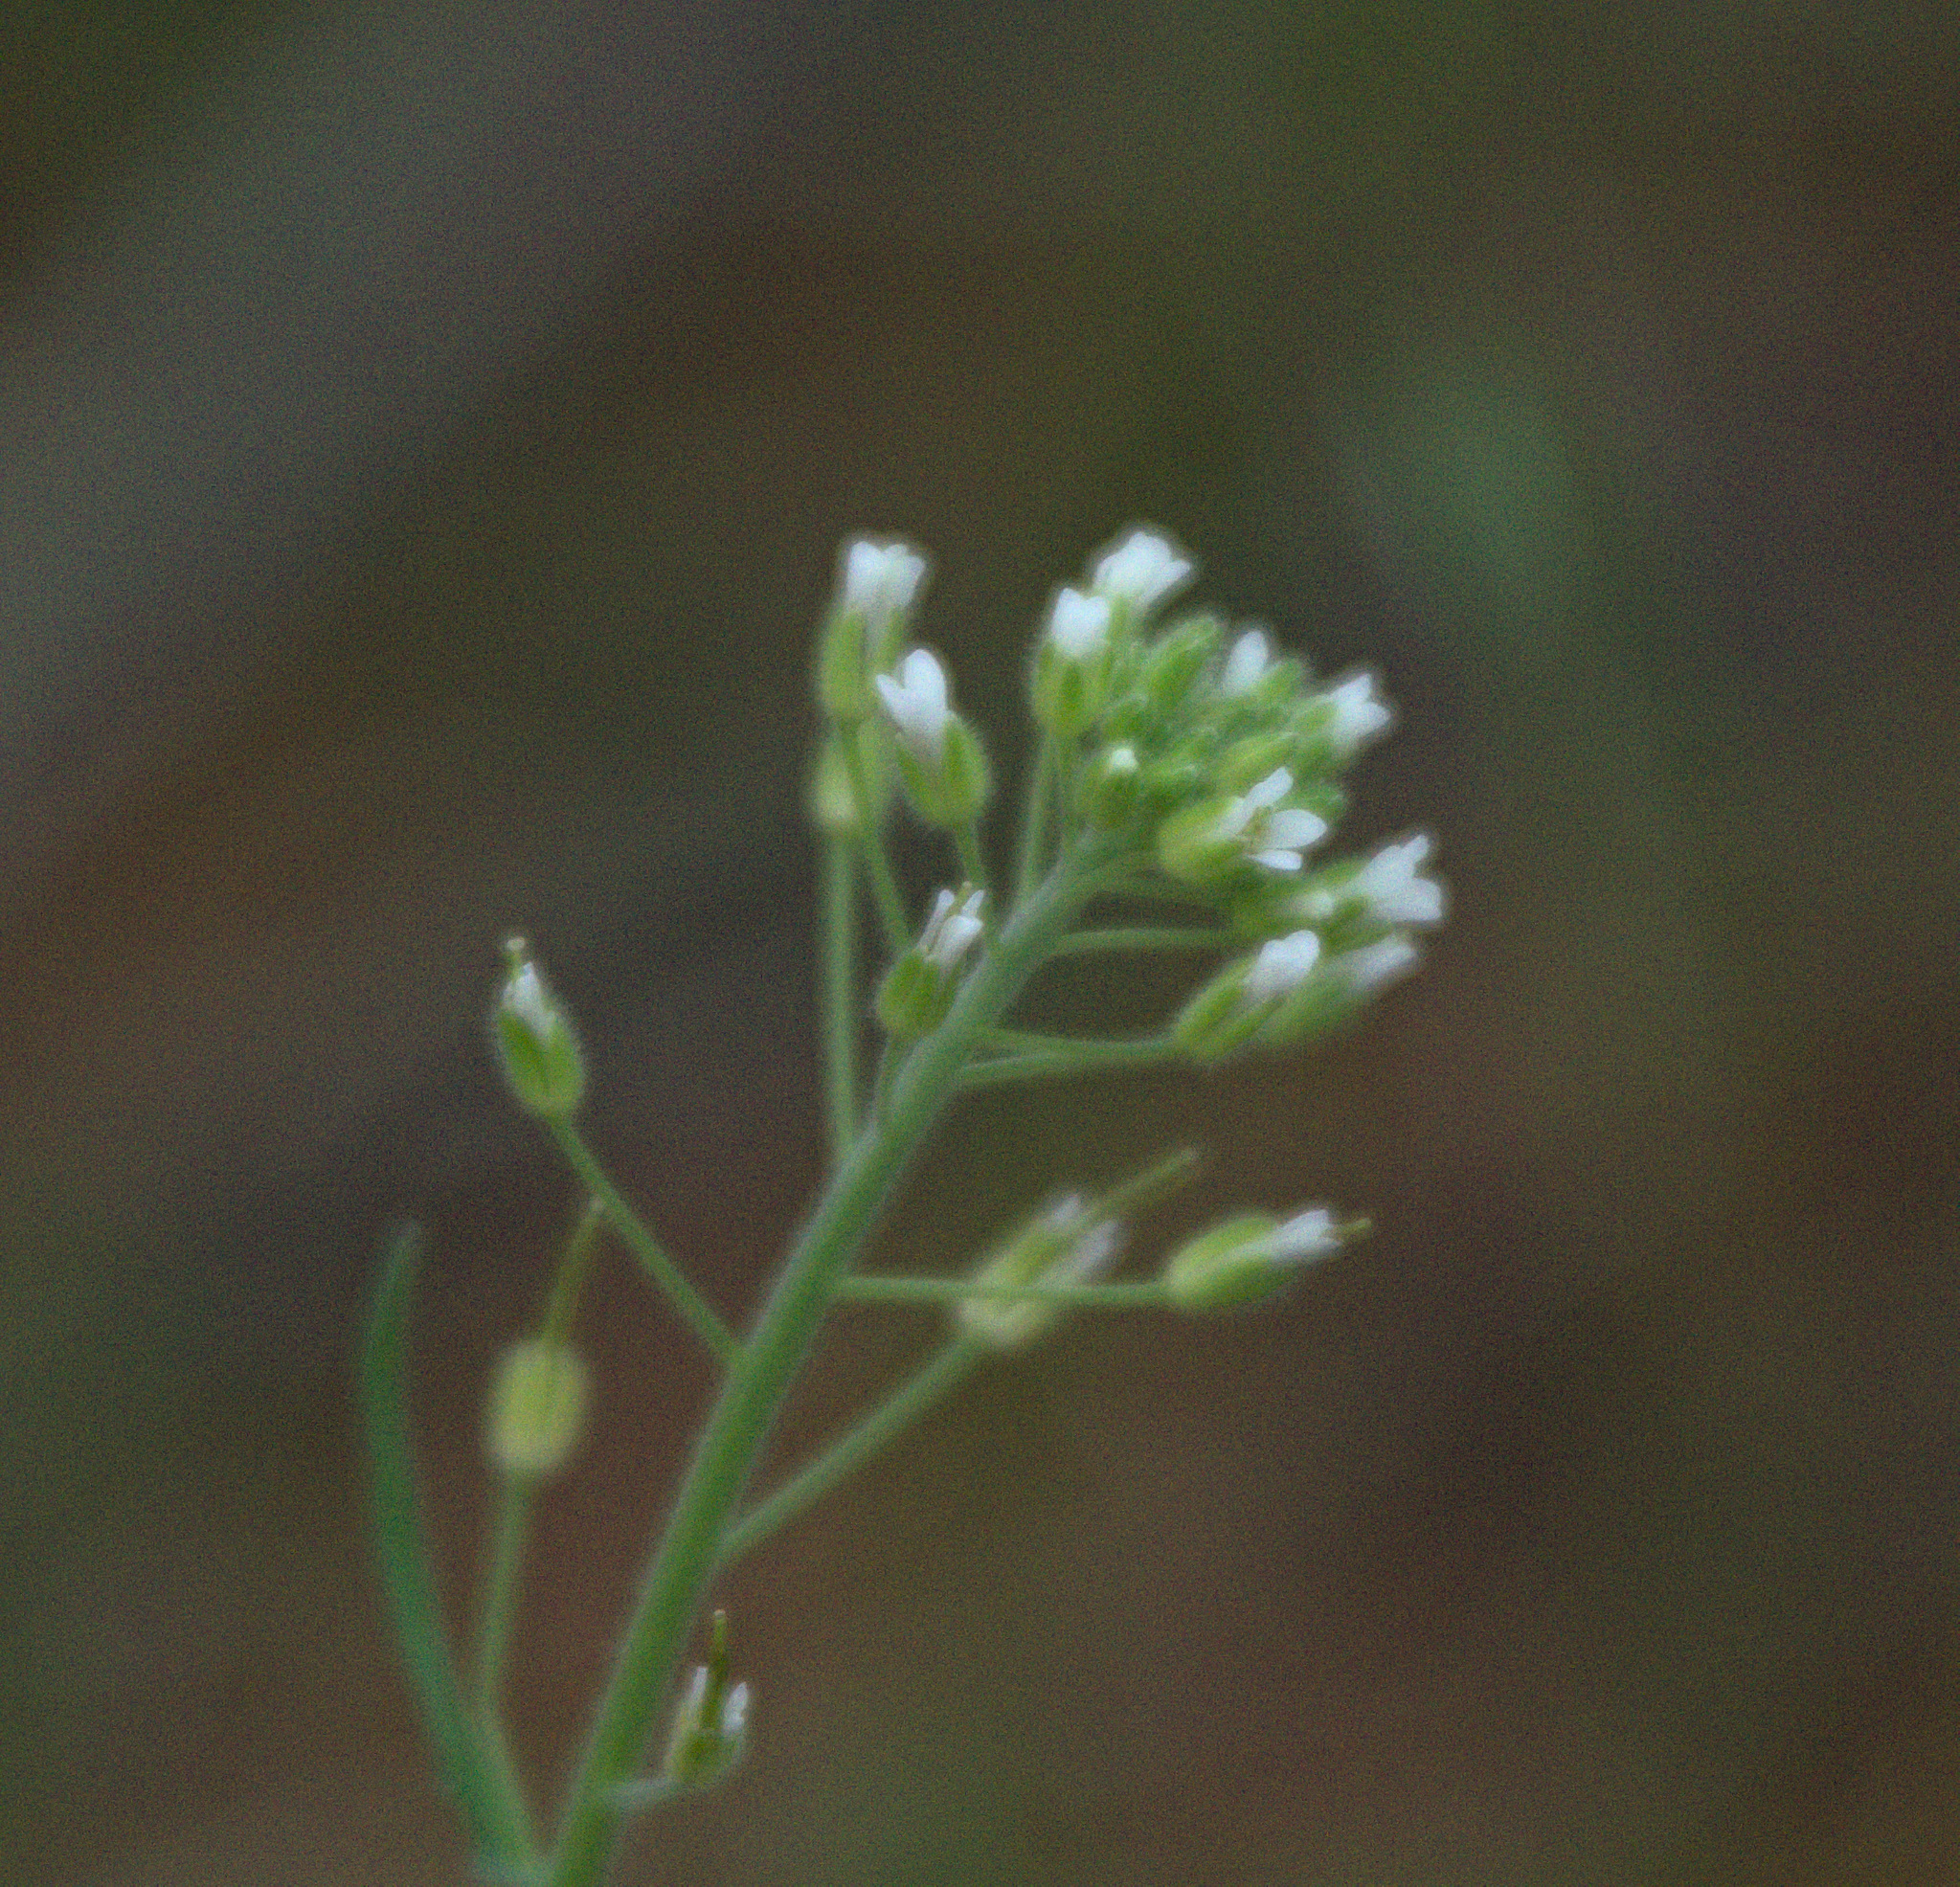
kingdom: Plantae
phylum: Tracheophyta
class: Magnoliopsida
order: Brassicales
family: Brassicaceae
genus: Capsella
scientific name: Capsella bursa-pastoris
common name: Shepherd's purse
